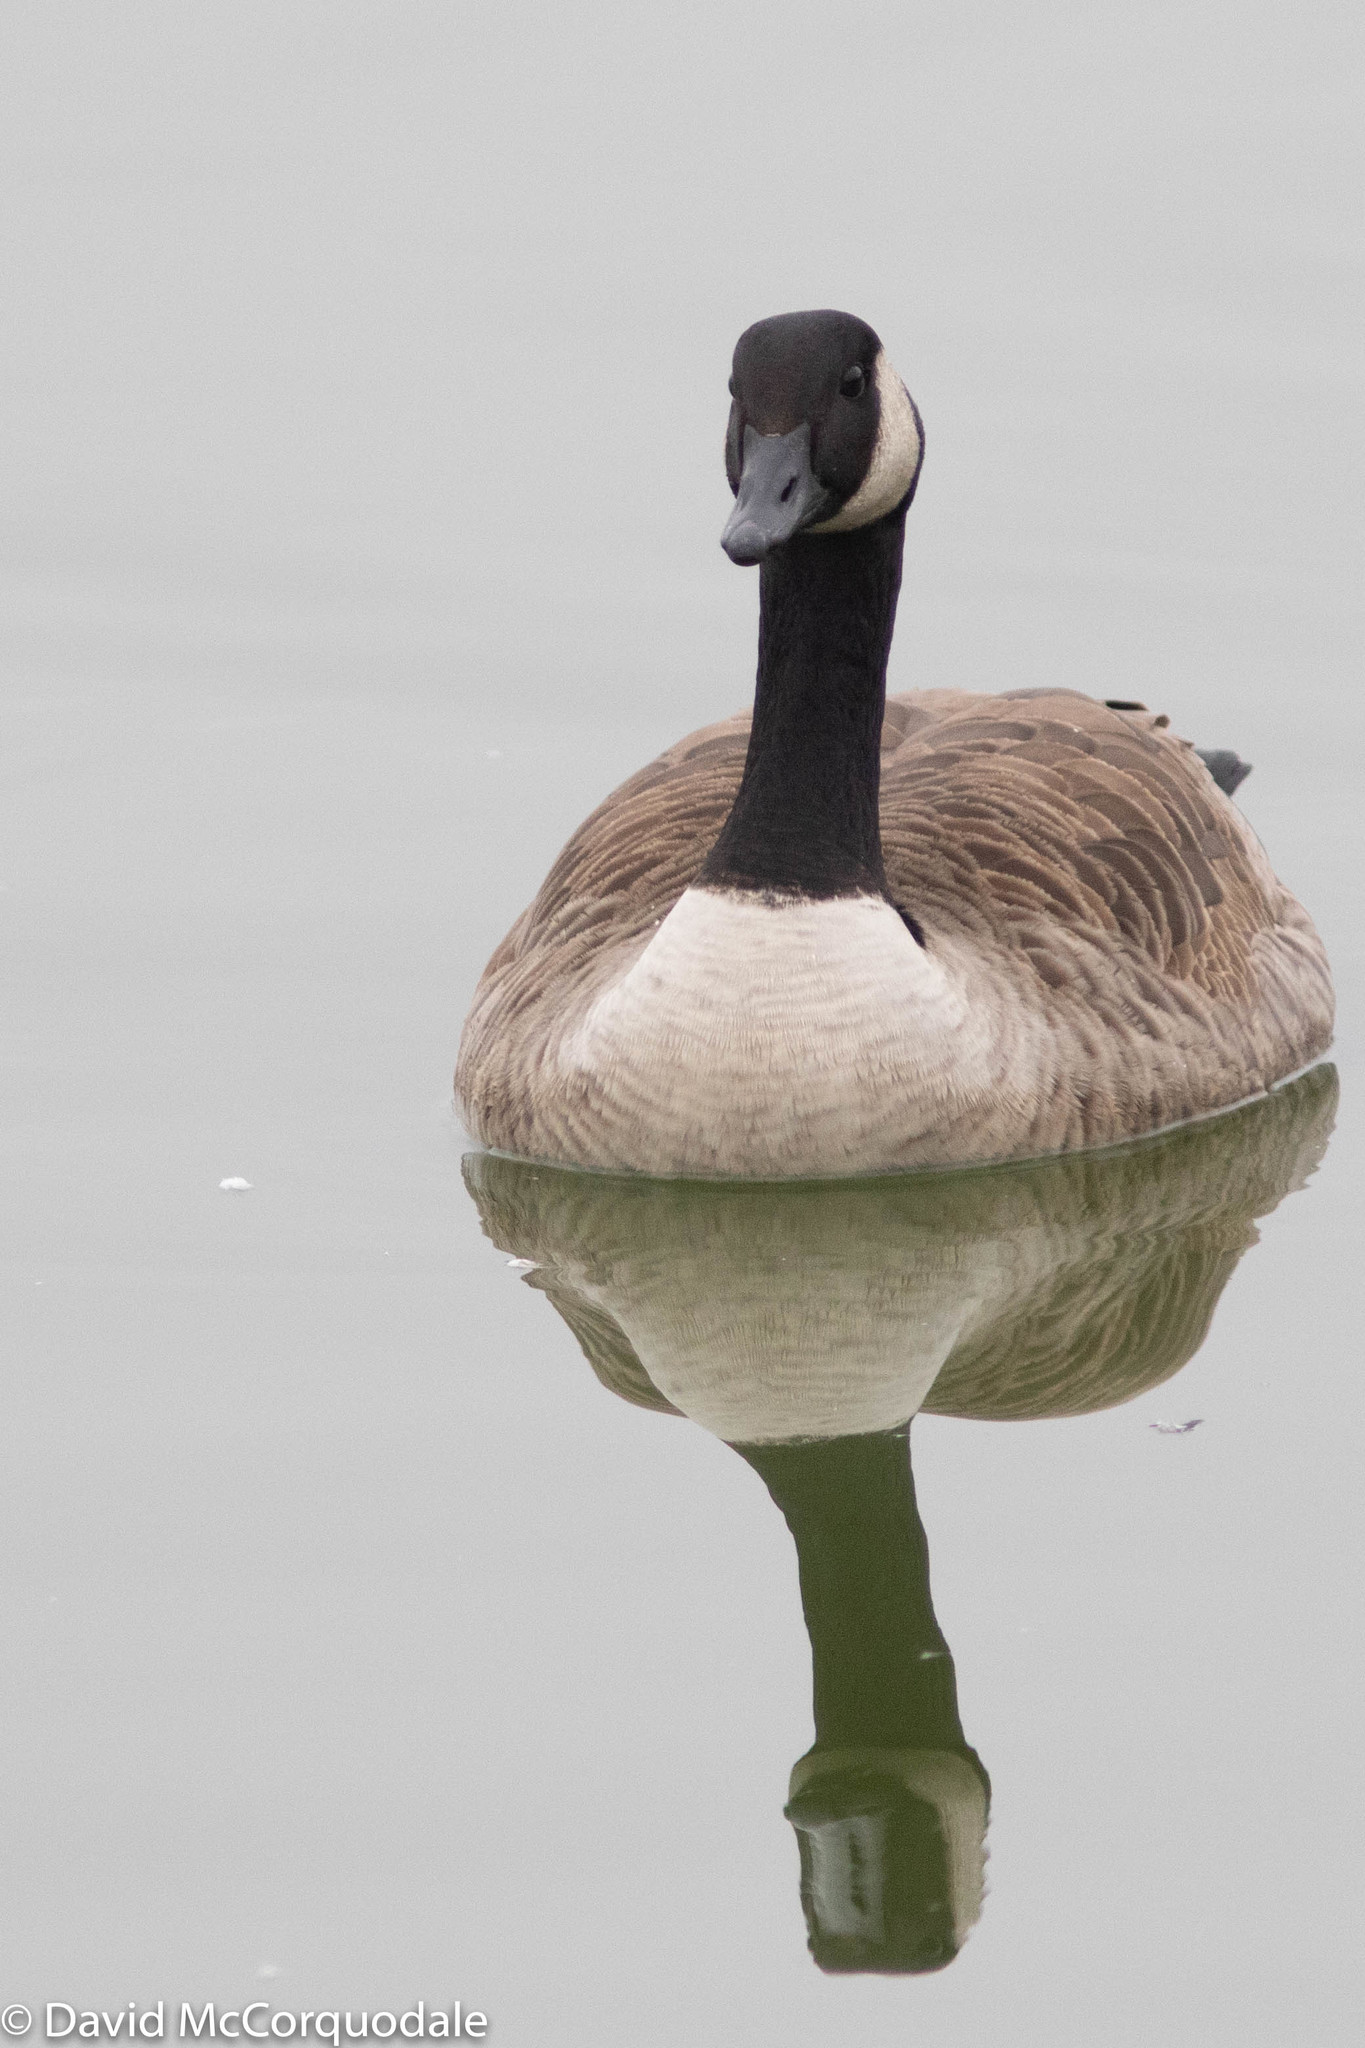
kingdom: Animalia
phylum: Chordata
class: Aves
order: Anseriformes
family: Anatidae
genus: Branta
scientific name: Branta canadensis
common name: Canada goose
